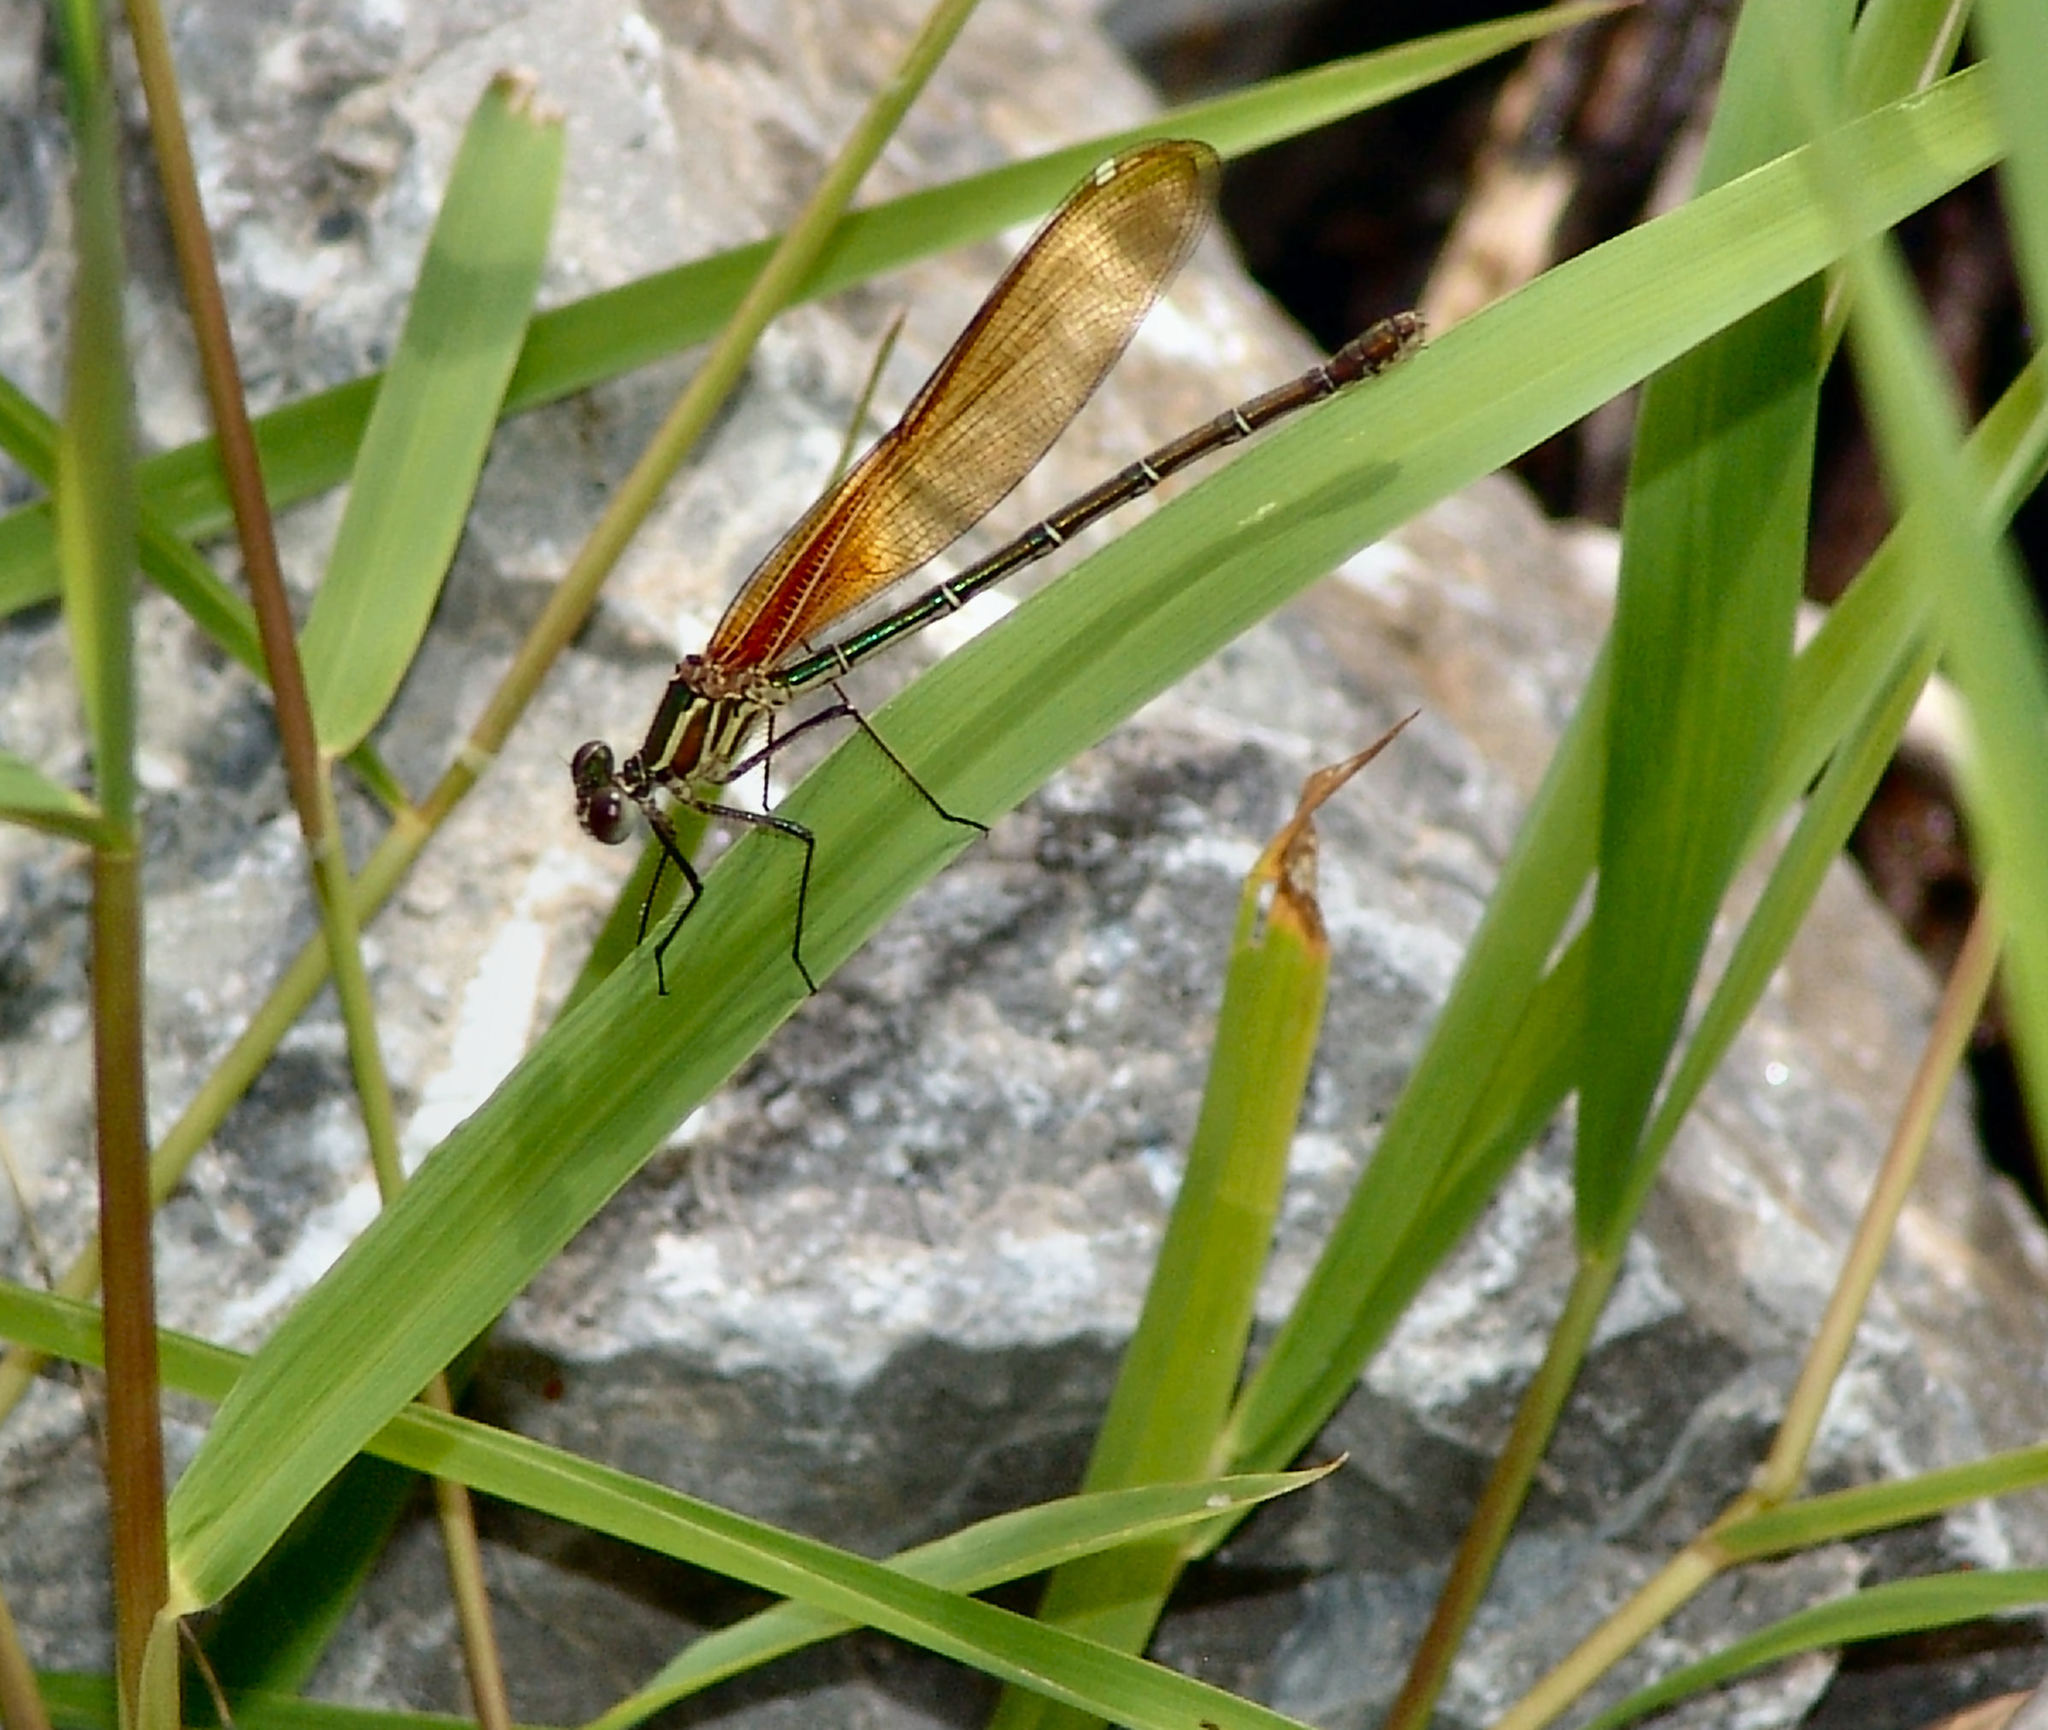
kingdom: Animalia
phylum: Arthropoda
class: Insecta
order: Odonata
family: Calopterygidae
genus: Hetaerina
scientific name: Hetaerina americana
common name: American rubyspot
